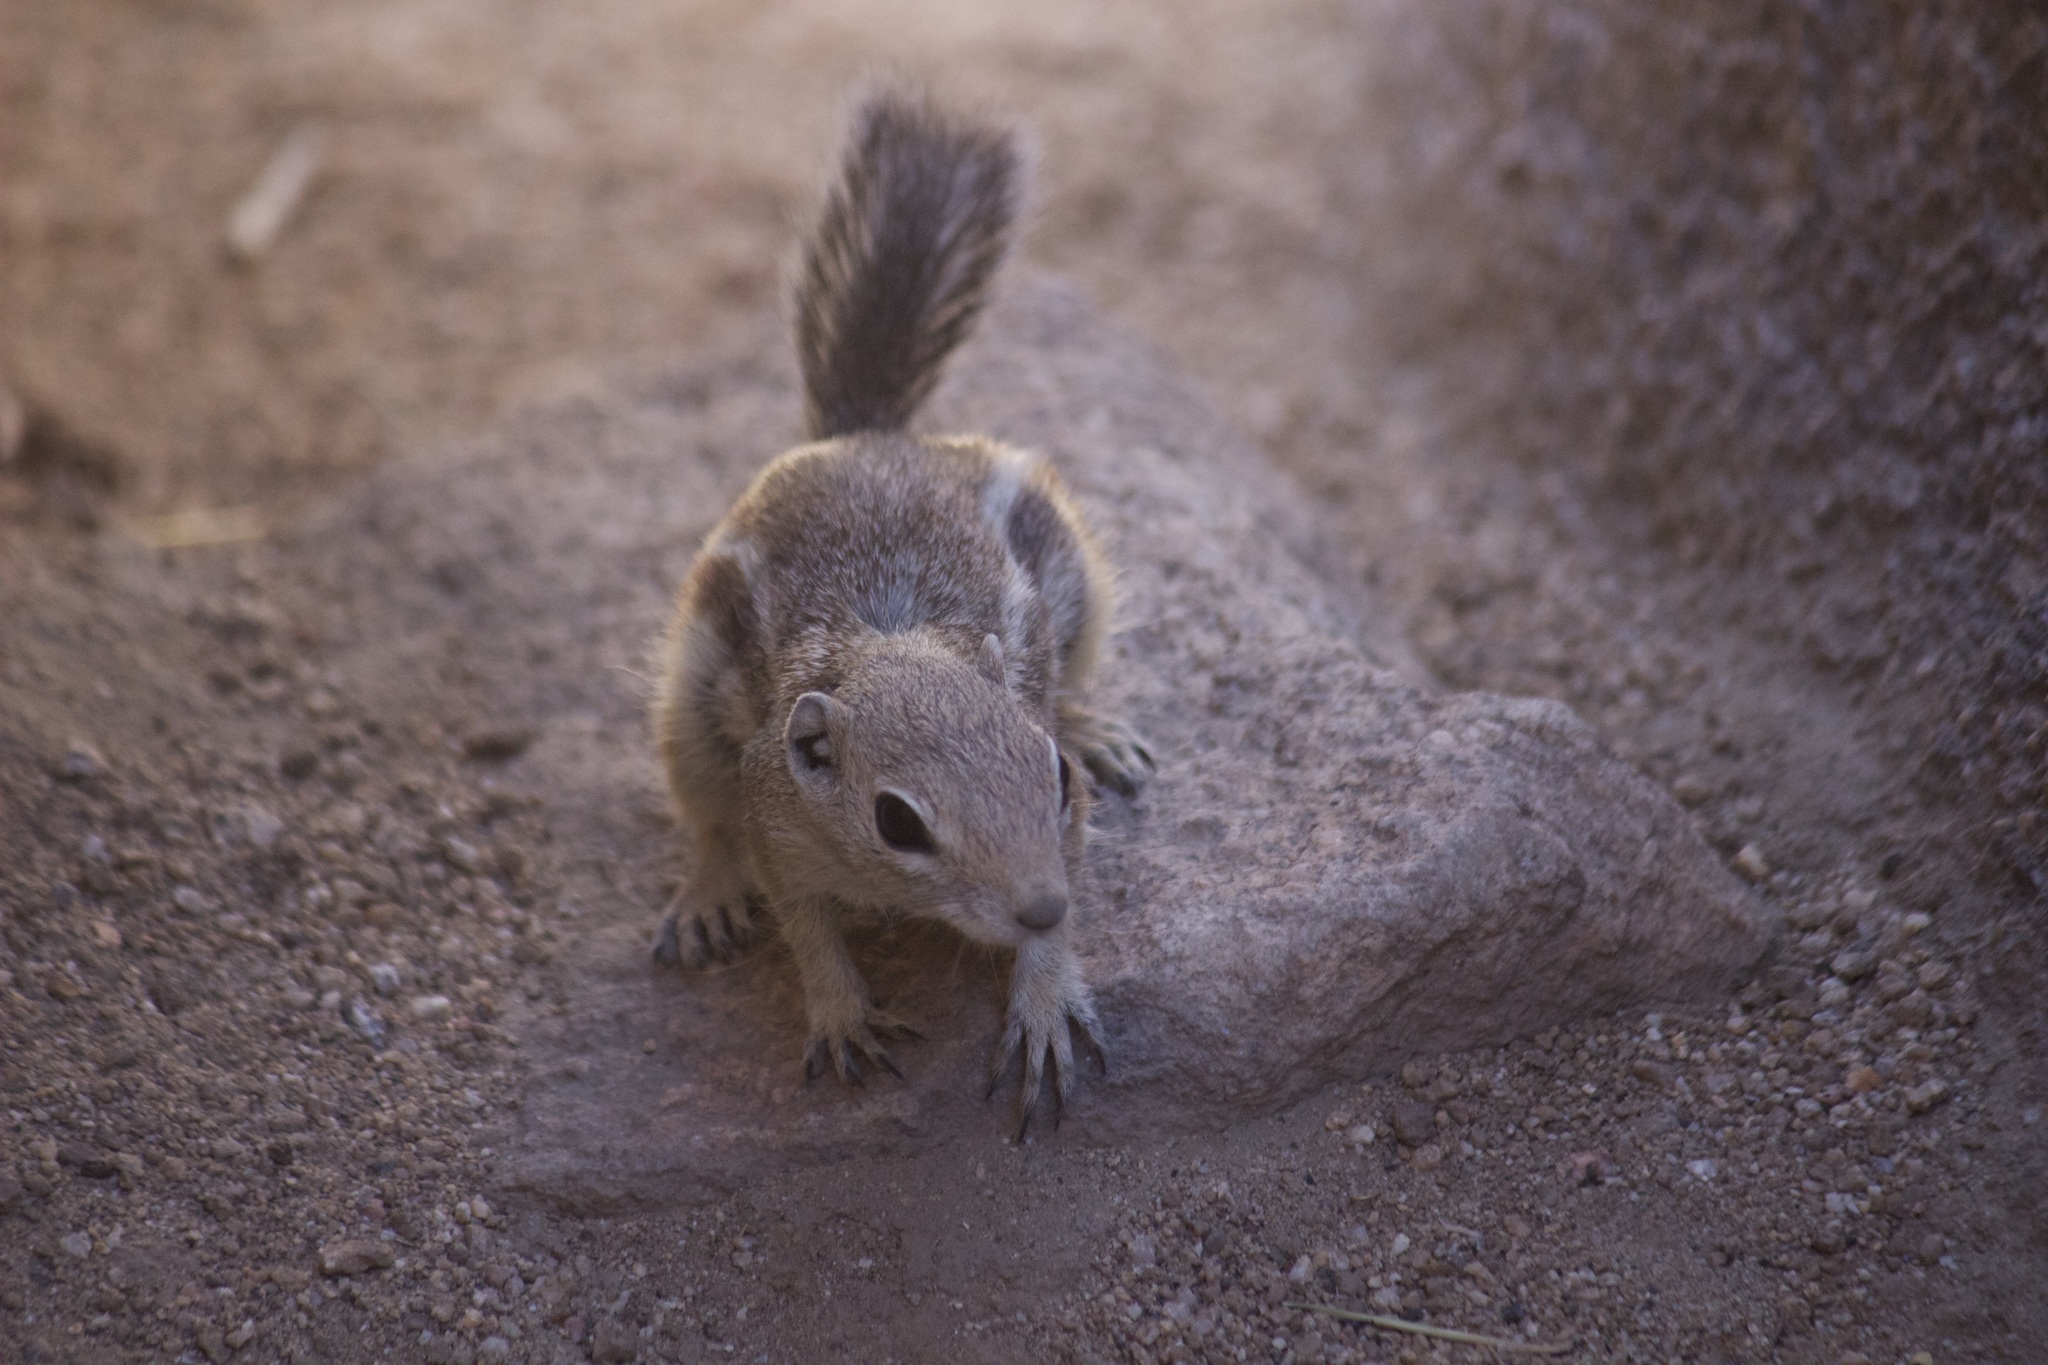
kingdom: Animalia
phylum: Chordata
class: Mammalia
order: Rodentia
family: Sciuridae
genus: Ammospermophilus
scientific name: Ammospermophilus leucurus
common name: White-tailed antelope squirrel
